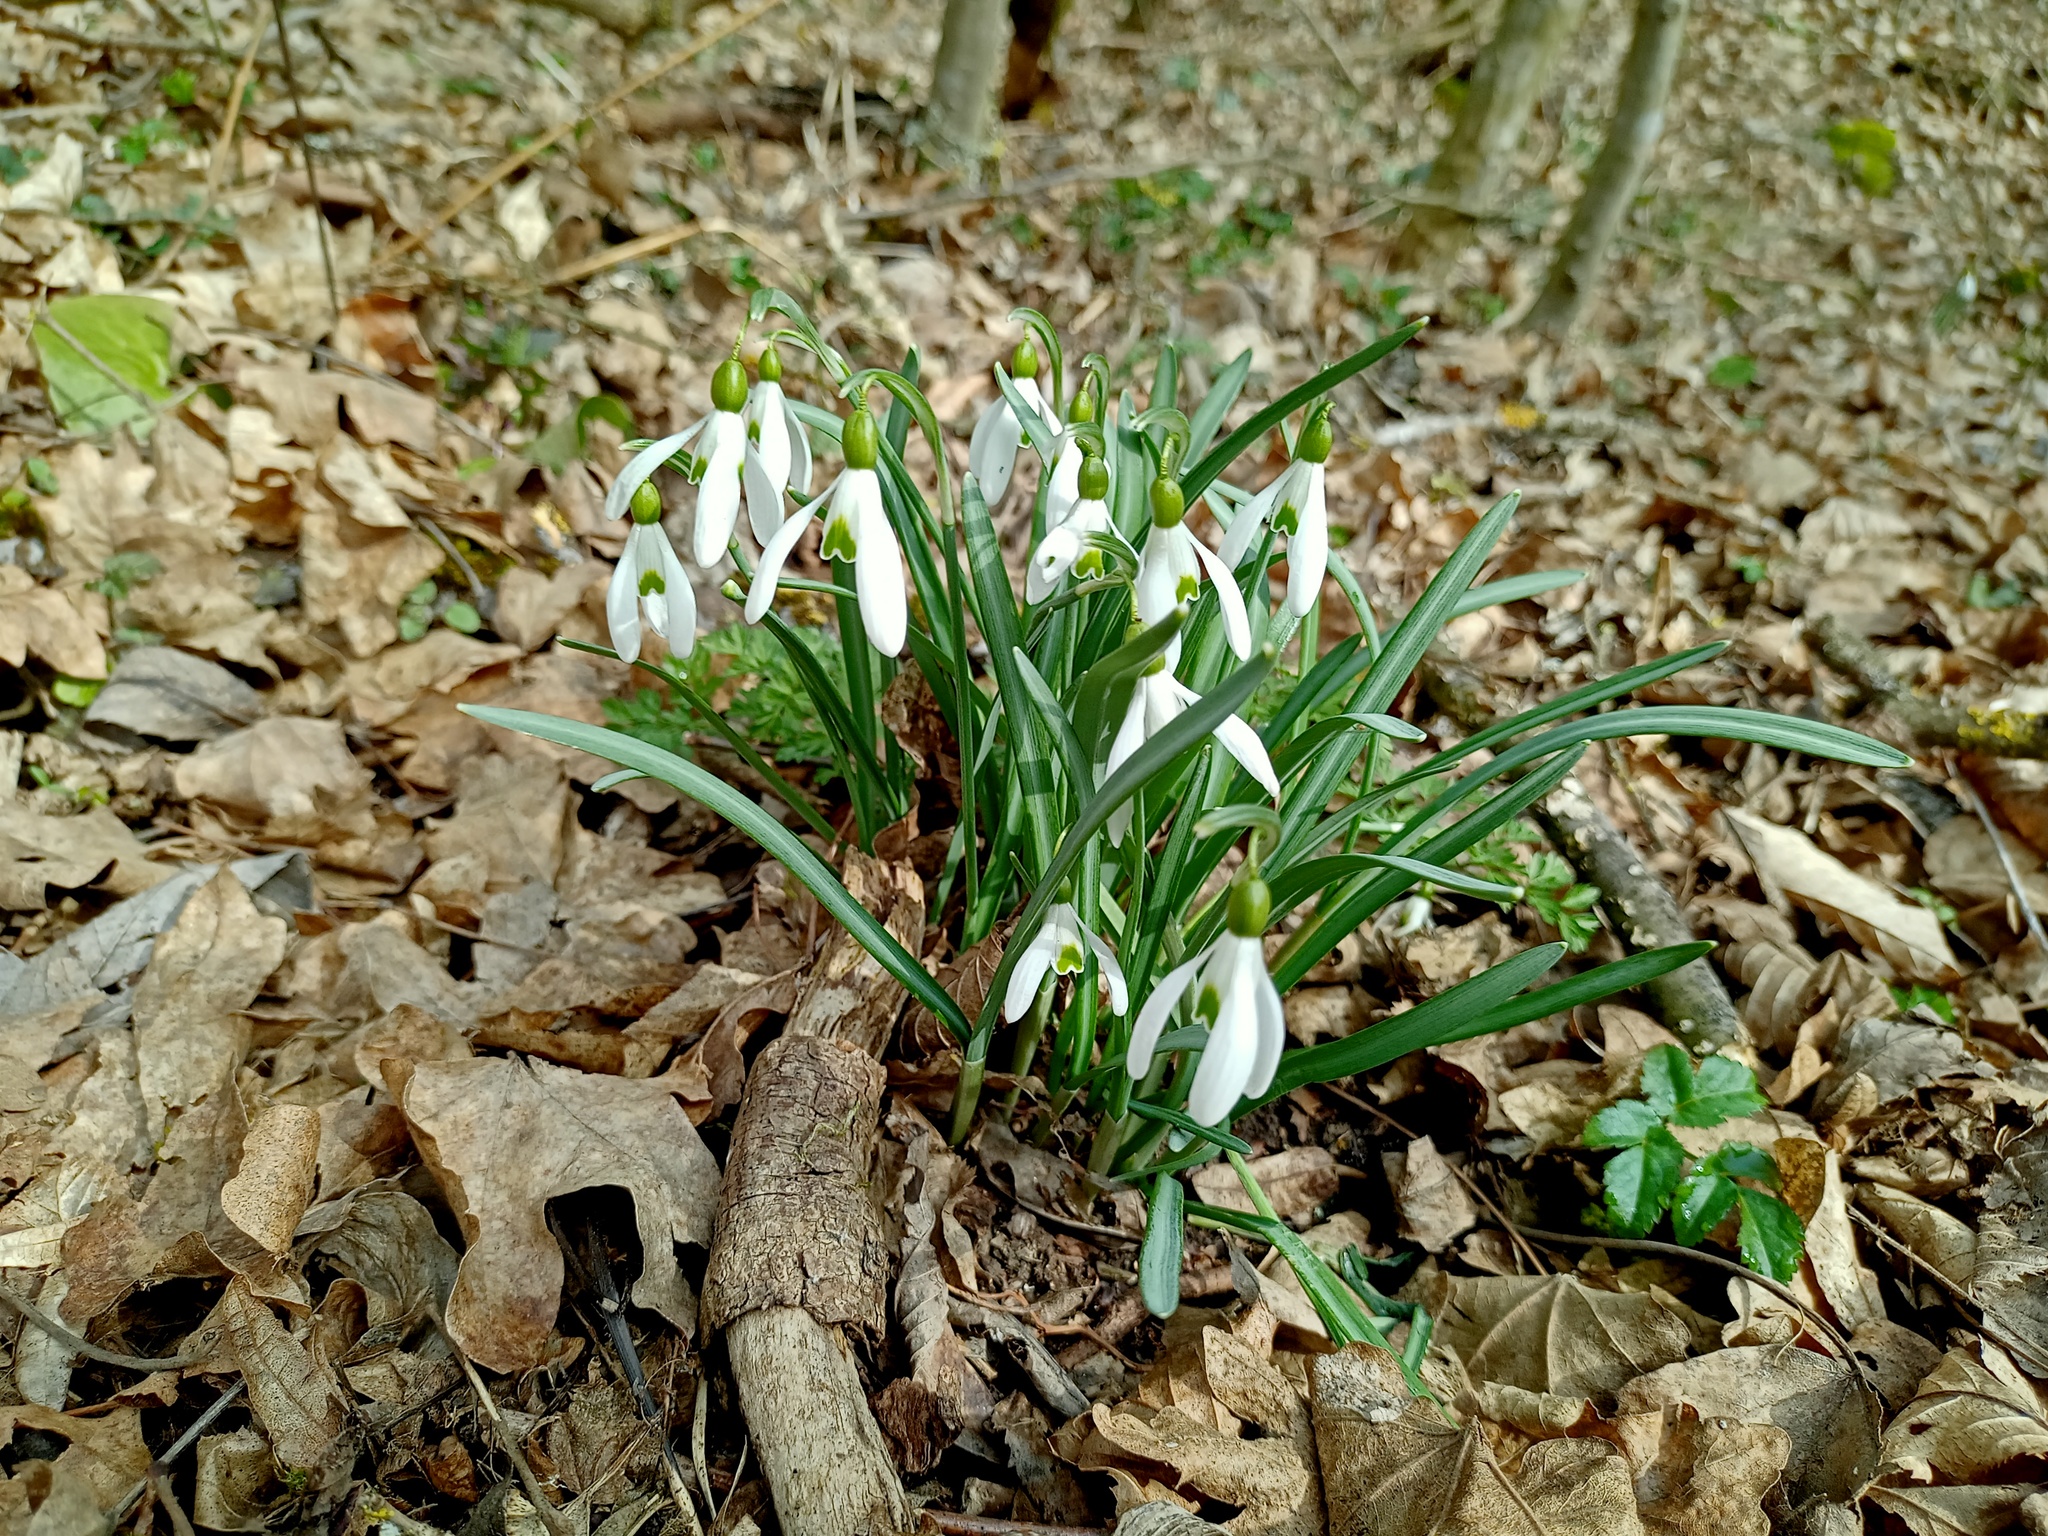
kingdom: Plantae
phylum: Tracheophyta
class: Liliopsida
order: Asparagales
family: Amaryllidaceae
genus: Galanthus
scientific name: Galanthus nivalis
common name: Snowdrop
